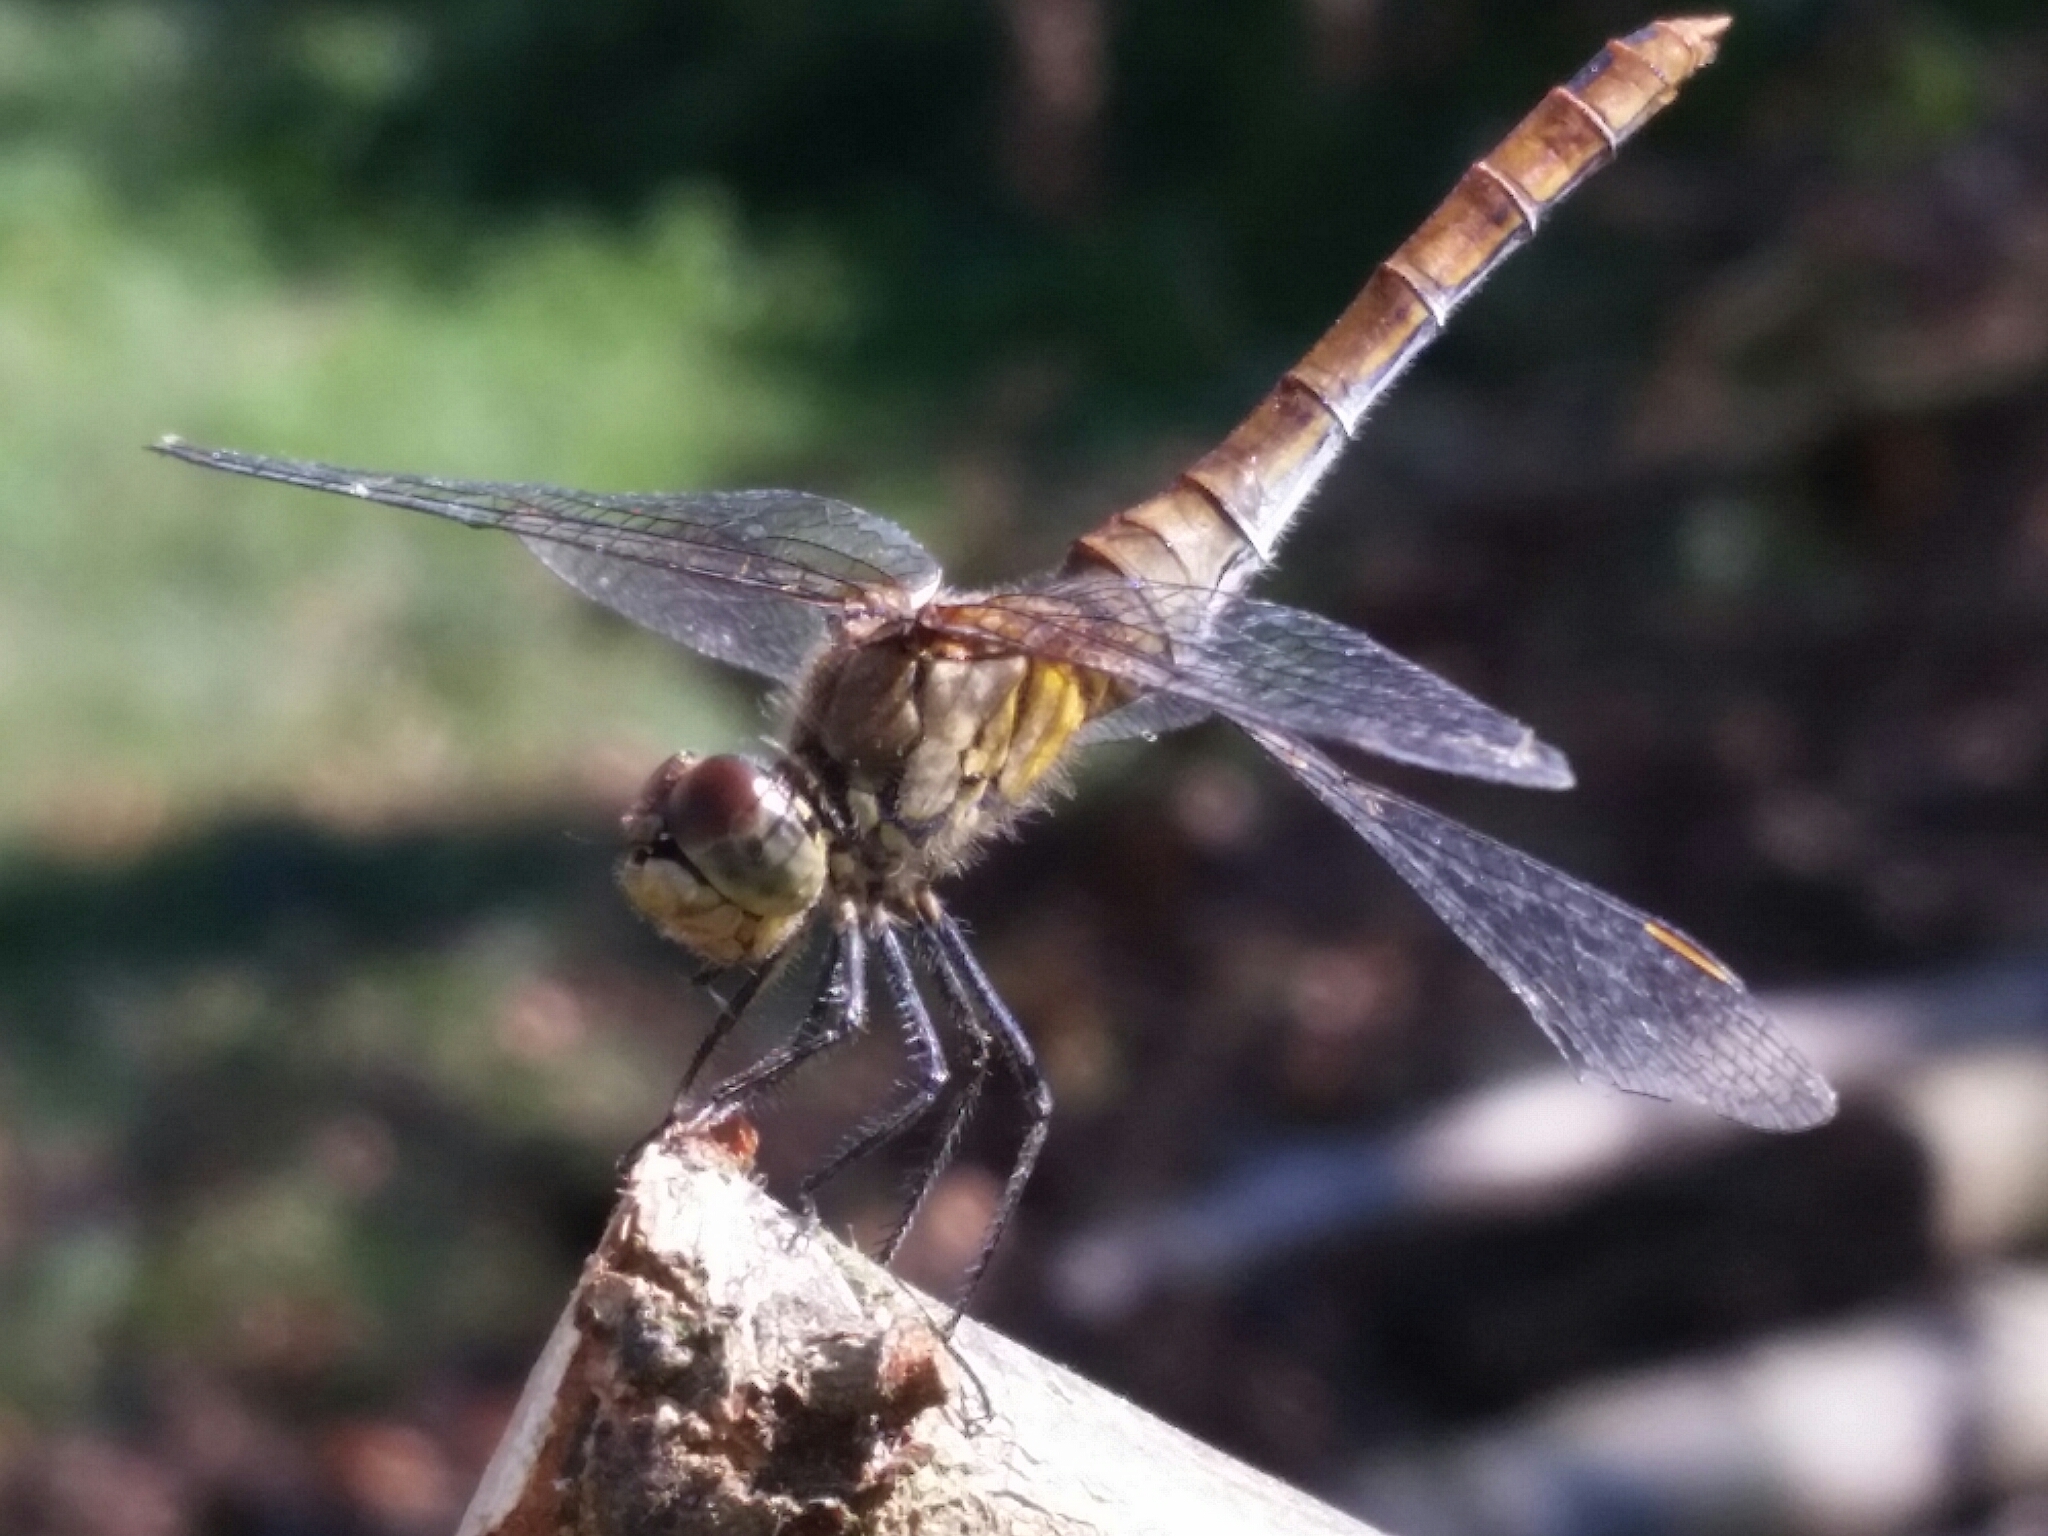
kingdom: Animalia
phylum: Arthropoda
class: Insecta
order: Odonata
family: Libellulidae
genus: Sympetrum
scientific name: Sympetrum sanguineum
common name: Ruddy darter
